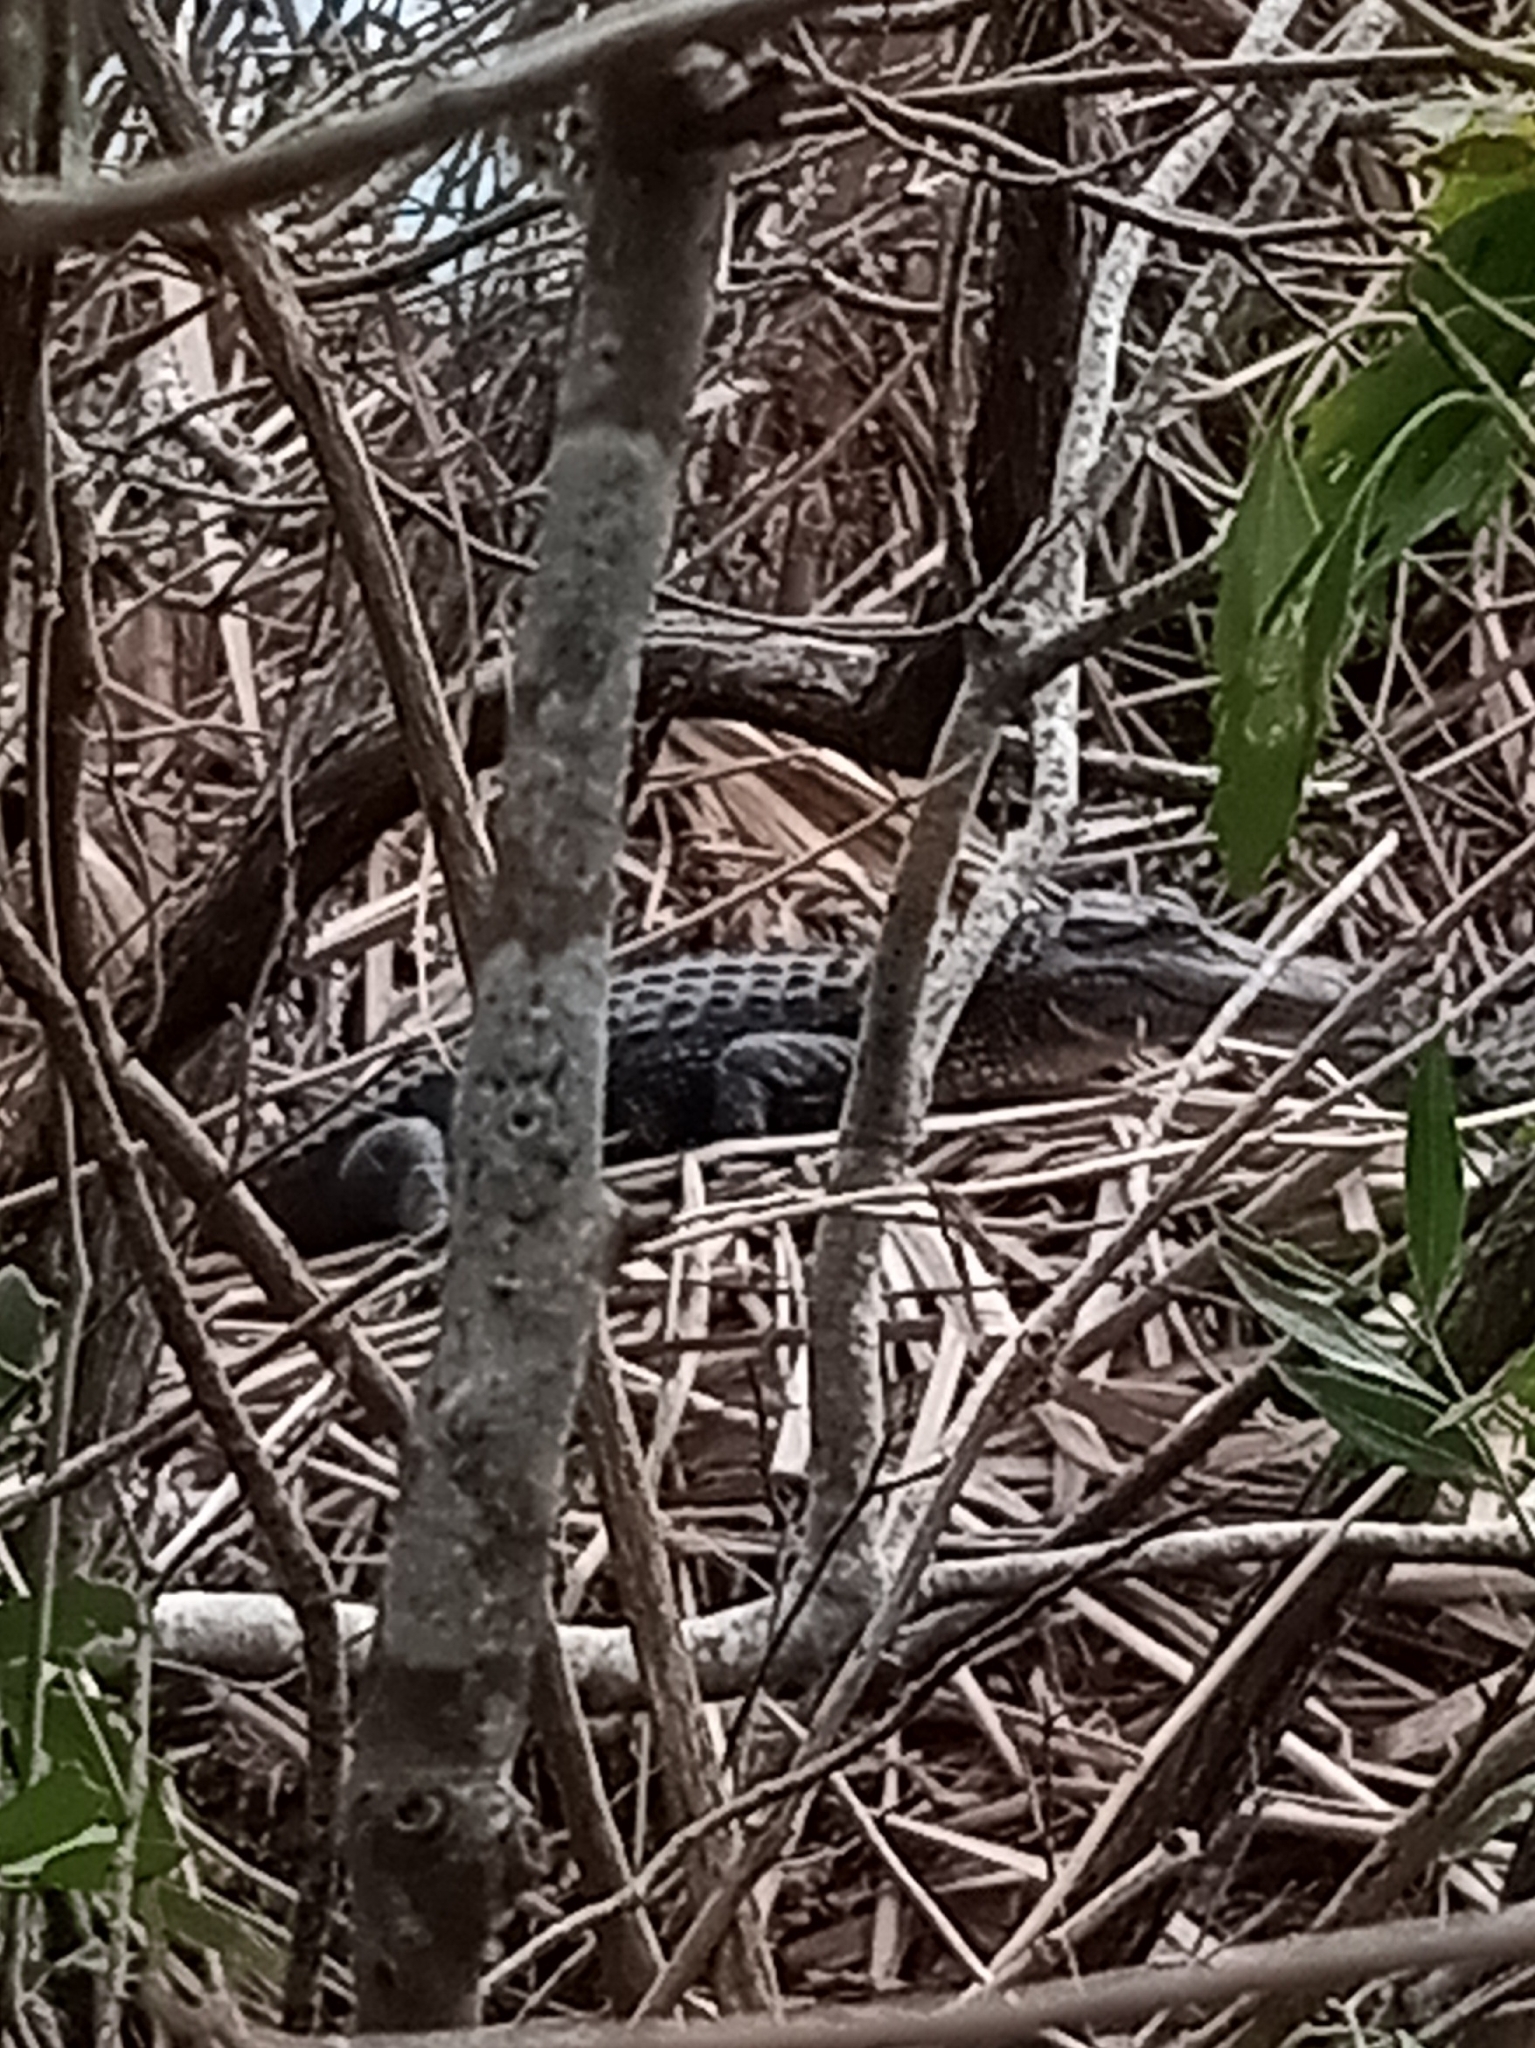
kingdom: Animalia
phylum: Chordata
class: Crocodylia
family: Alligatoridae
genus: Alligator
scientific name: Alligator mississippiensis
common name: American alligator
